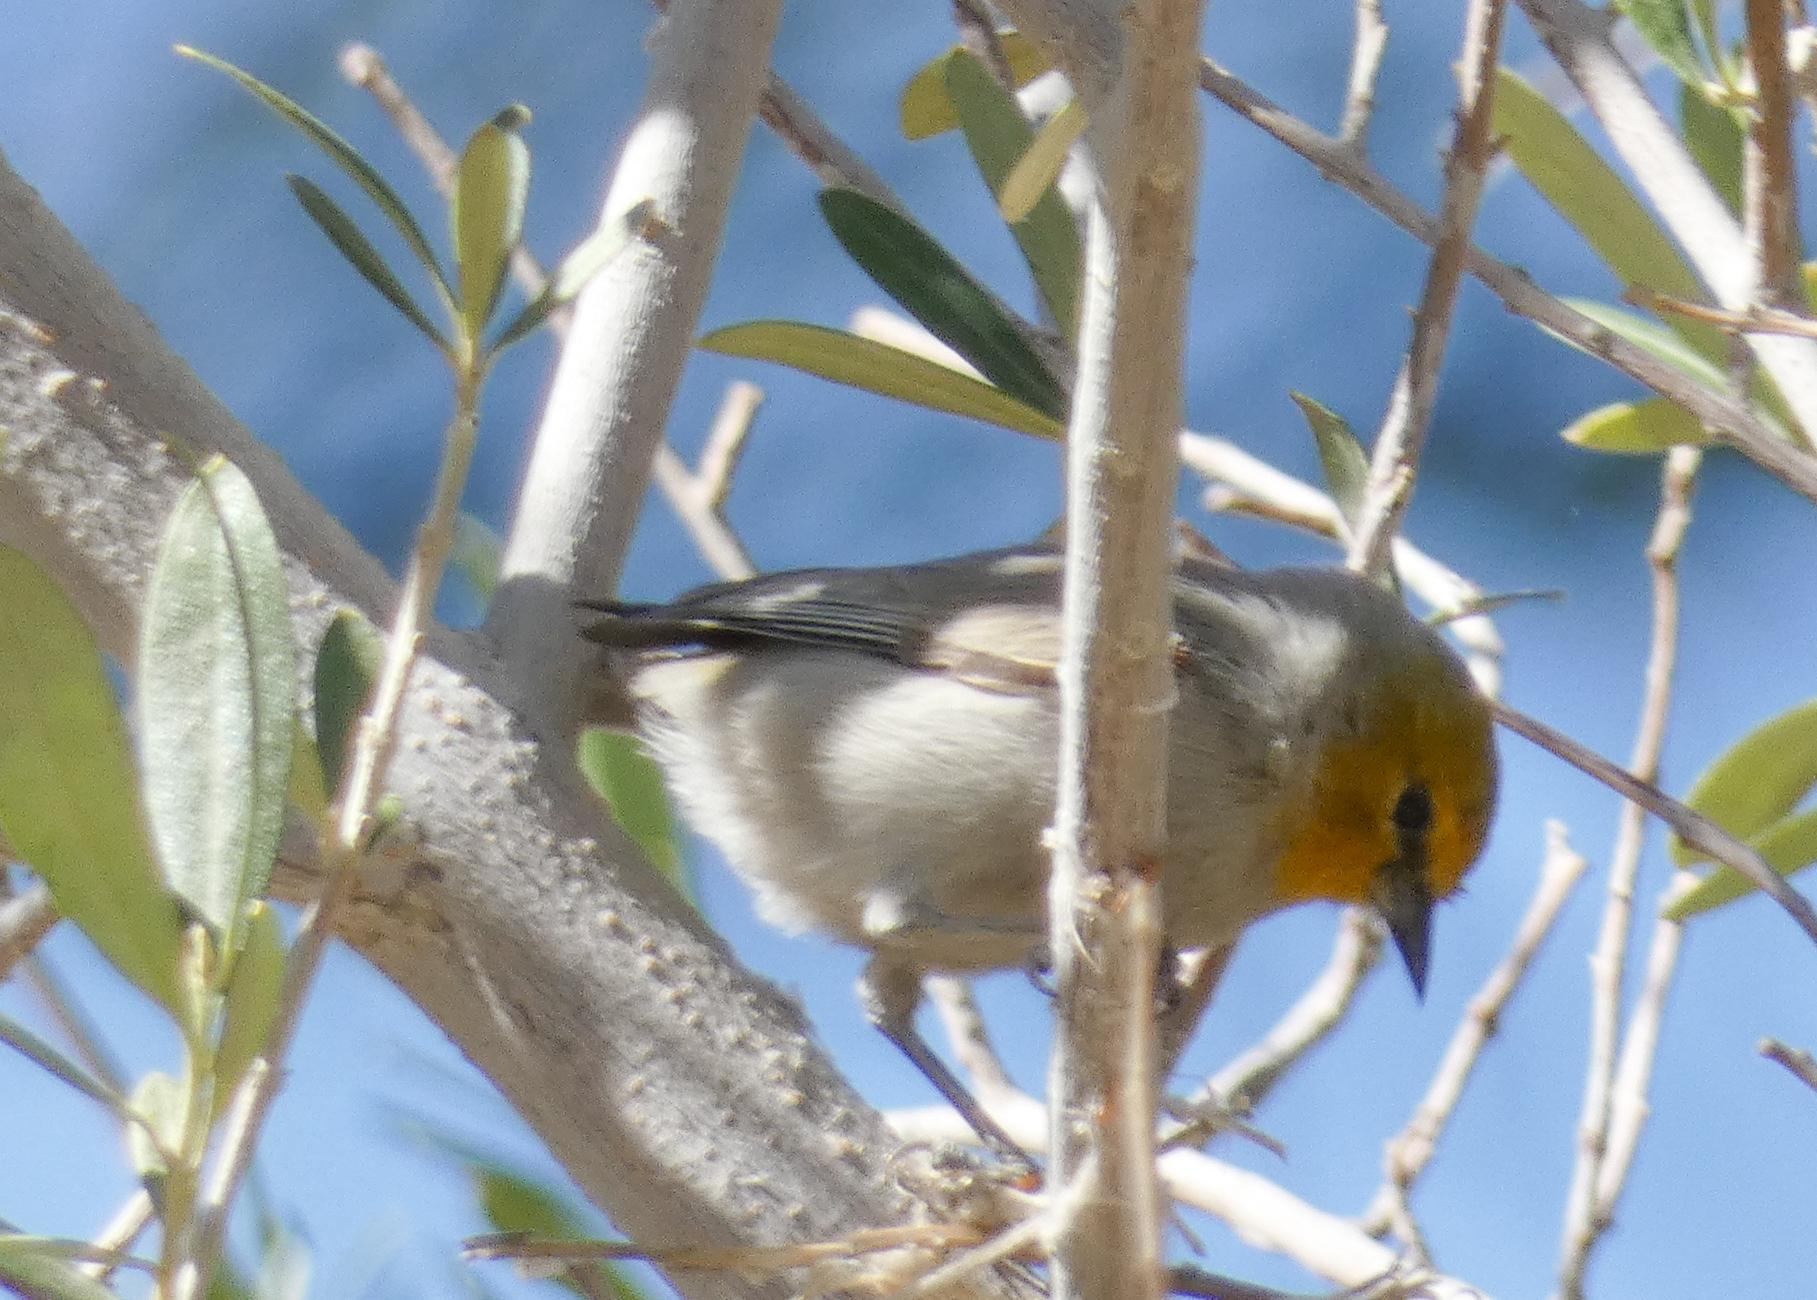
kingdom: Animalia
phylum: Chordata
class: Aves
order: Passeriformes
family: Remizidae
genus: Auriparus
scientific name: Auriparus flaviceps
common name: Verdin
